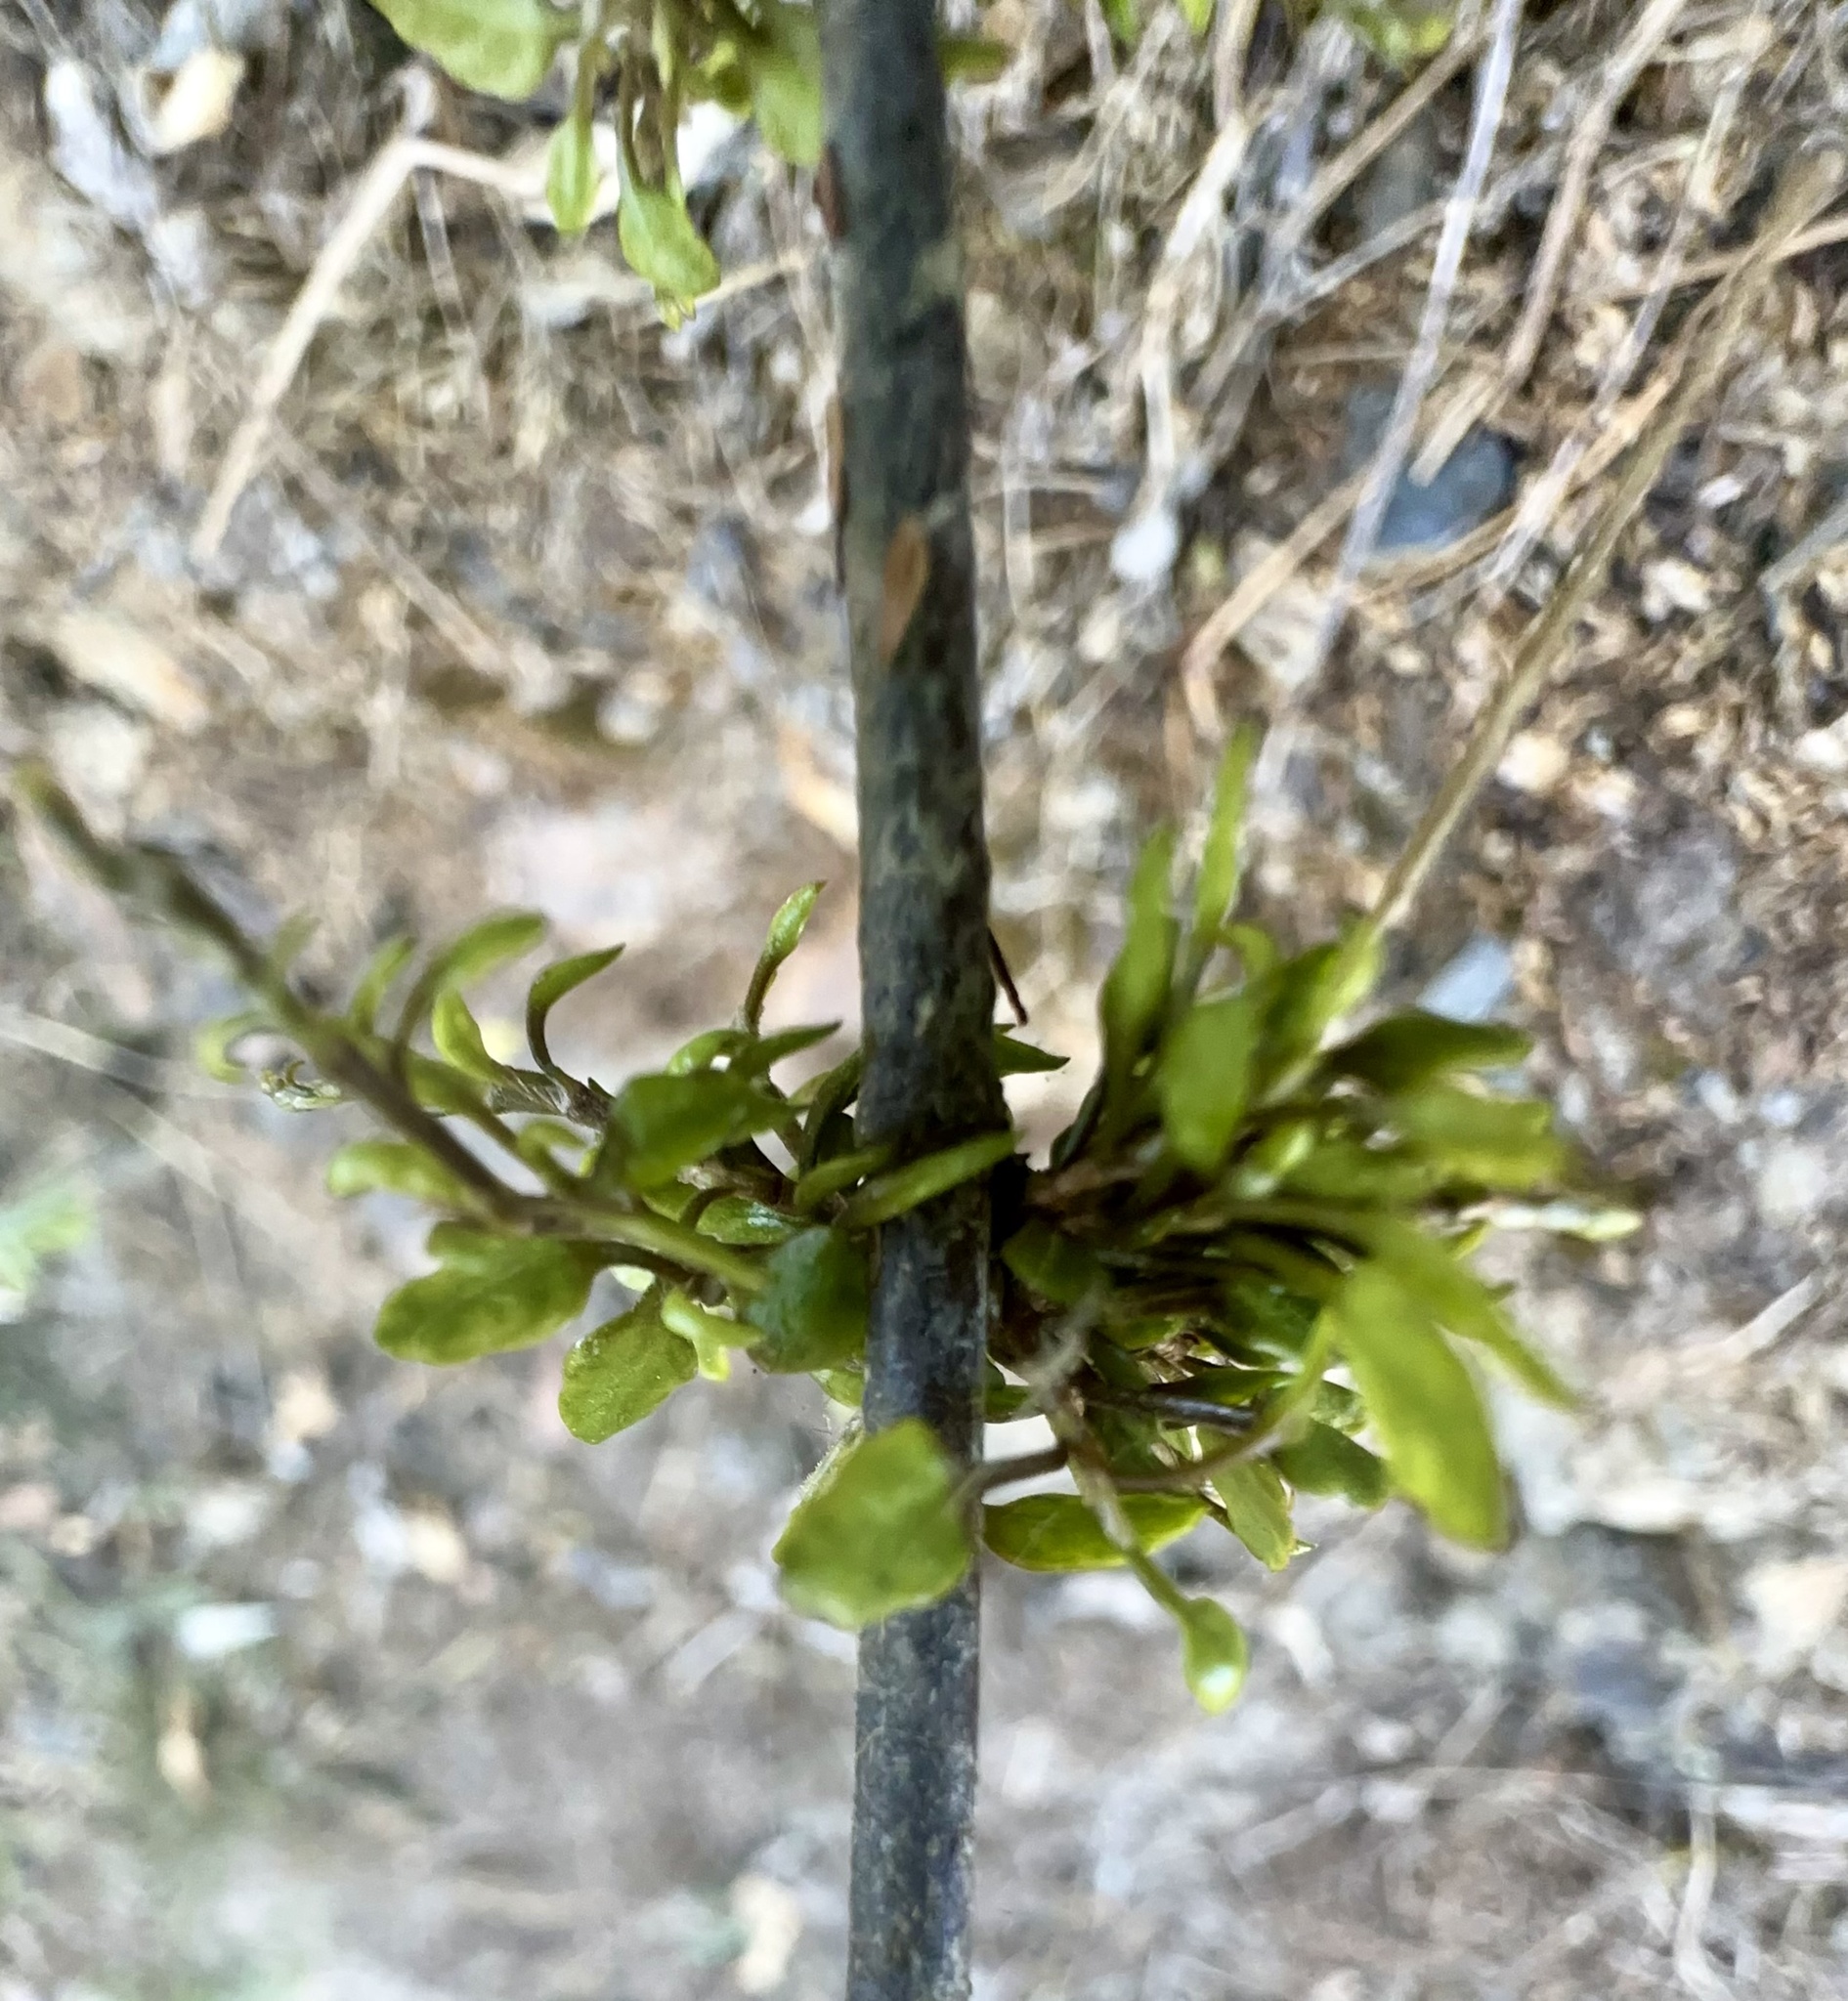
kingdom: Plantae
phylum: Tracheophyta
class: Magnoliopsida
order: Gentianales
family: Rubiaceae
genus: Coprosma
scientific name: Coprosma areolata
